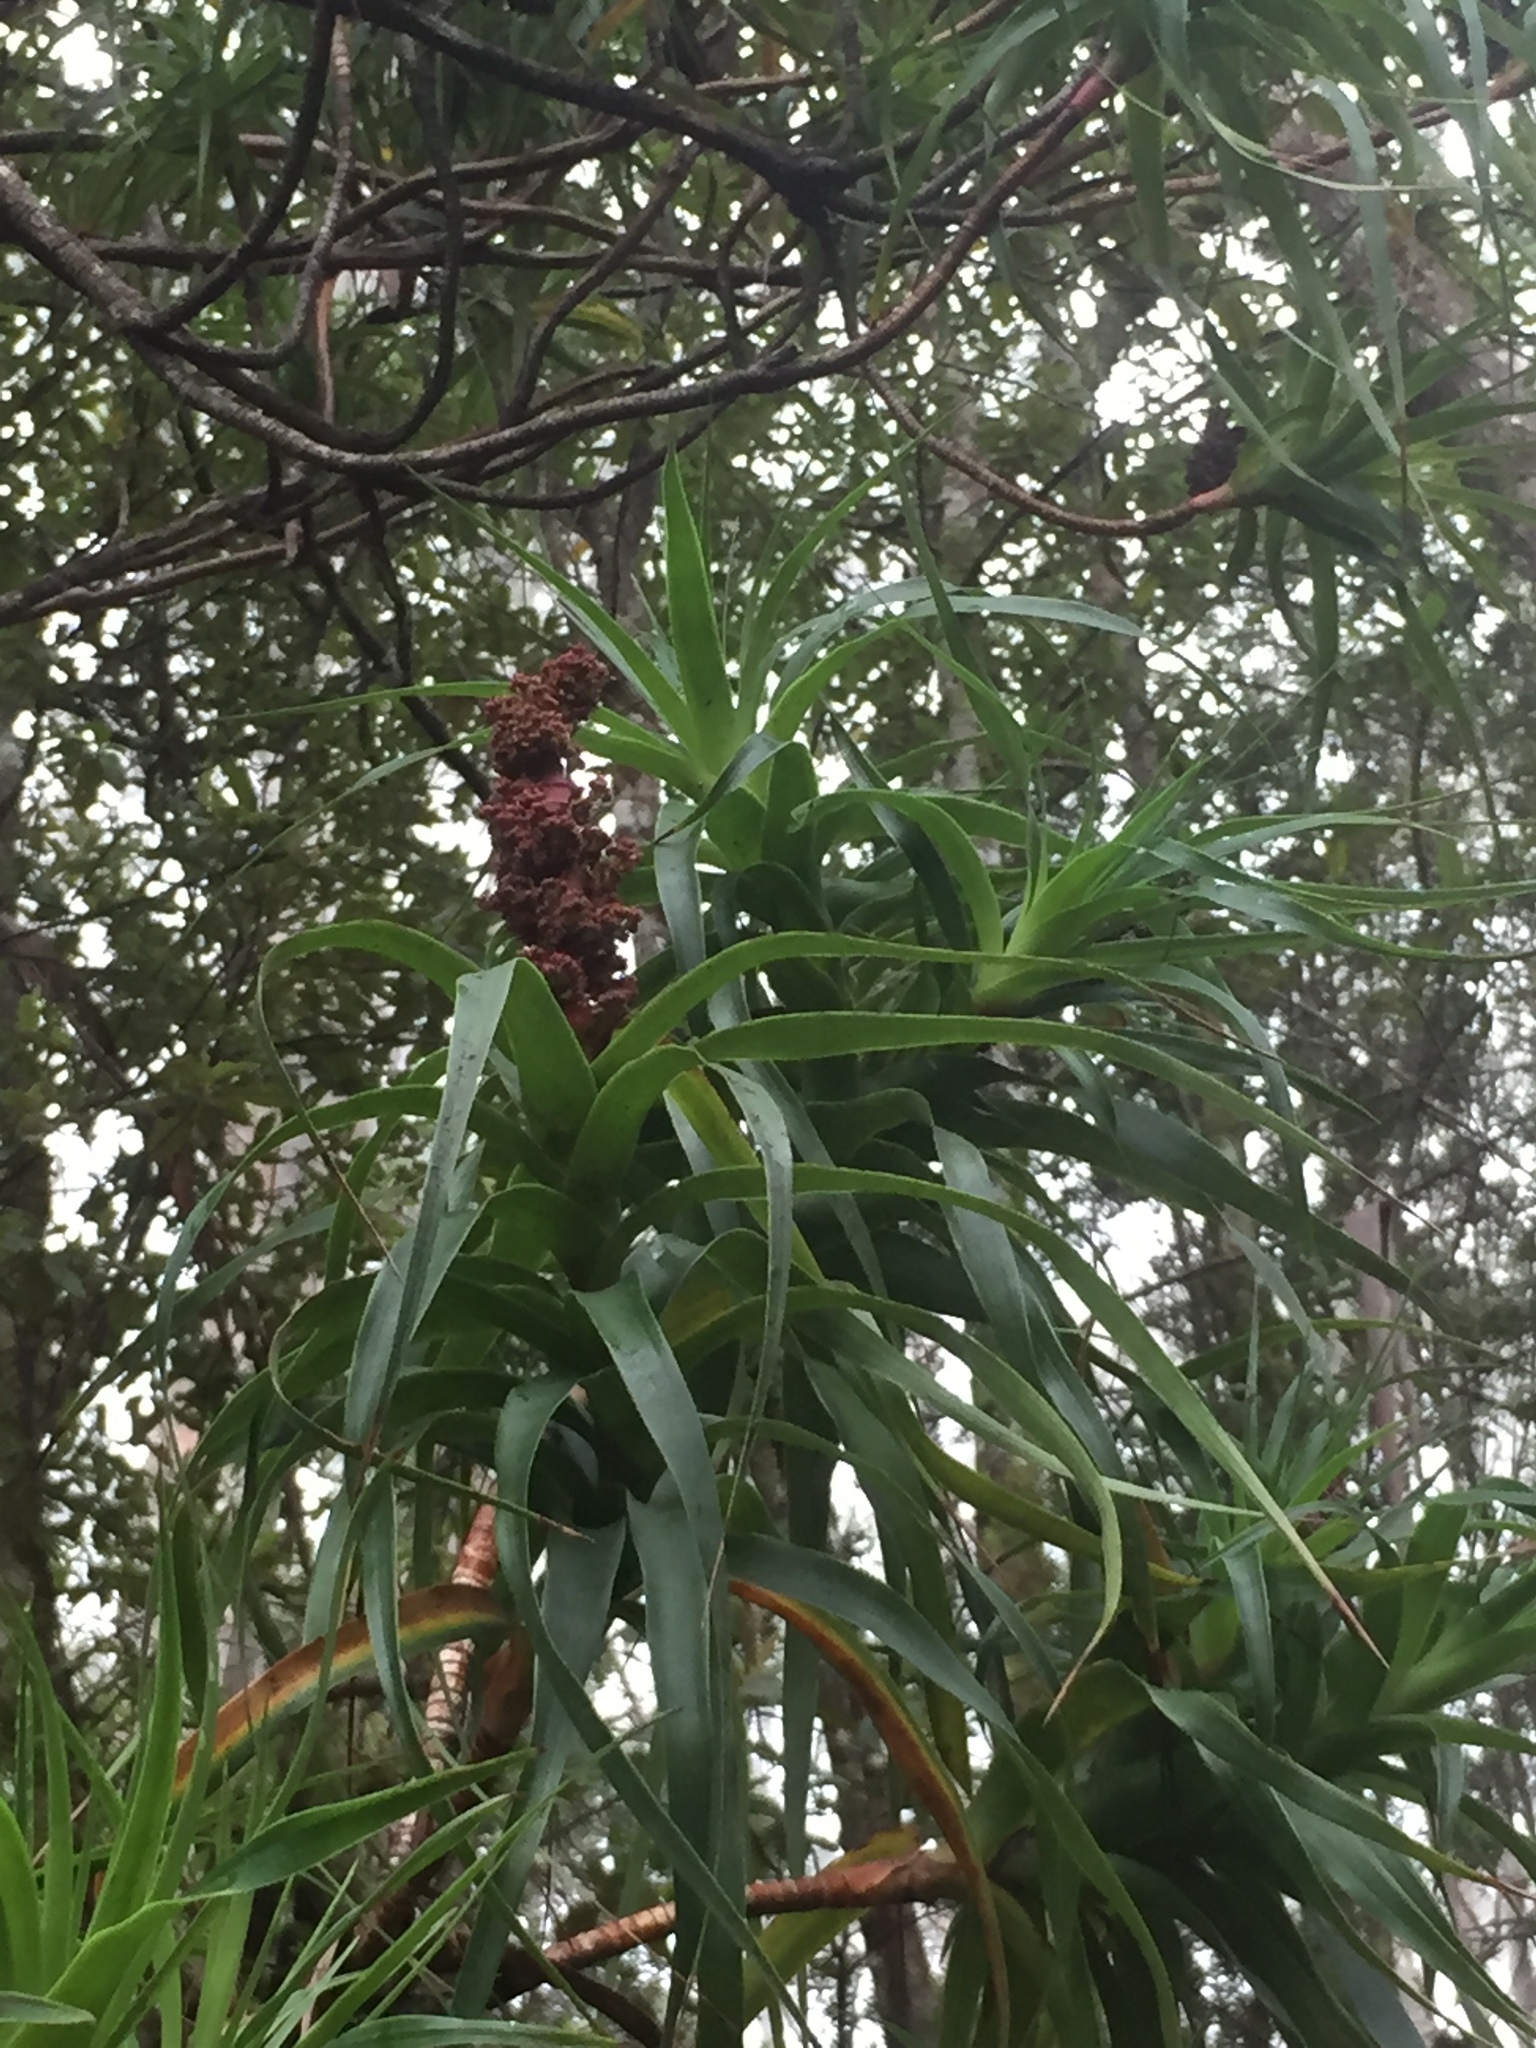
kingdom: Plantae
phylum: Tracheophyta
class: Magnoliopsida
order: Ericales
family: Ericaceae
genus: Dracophyllum
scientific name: Dracophyllum desgrazii
